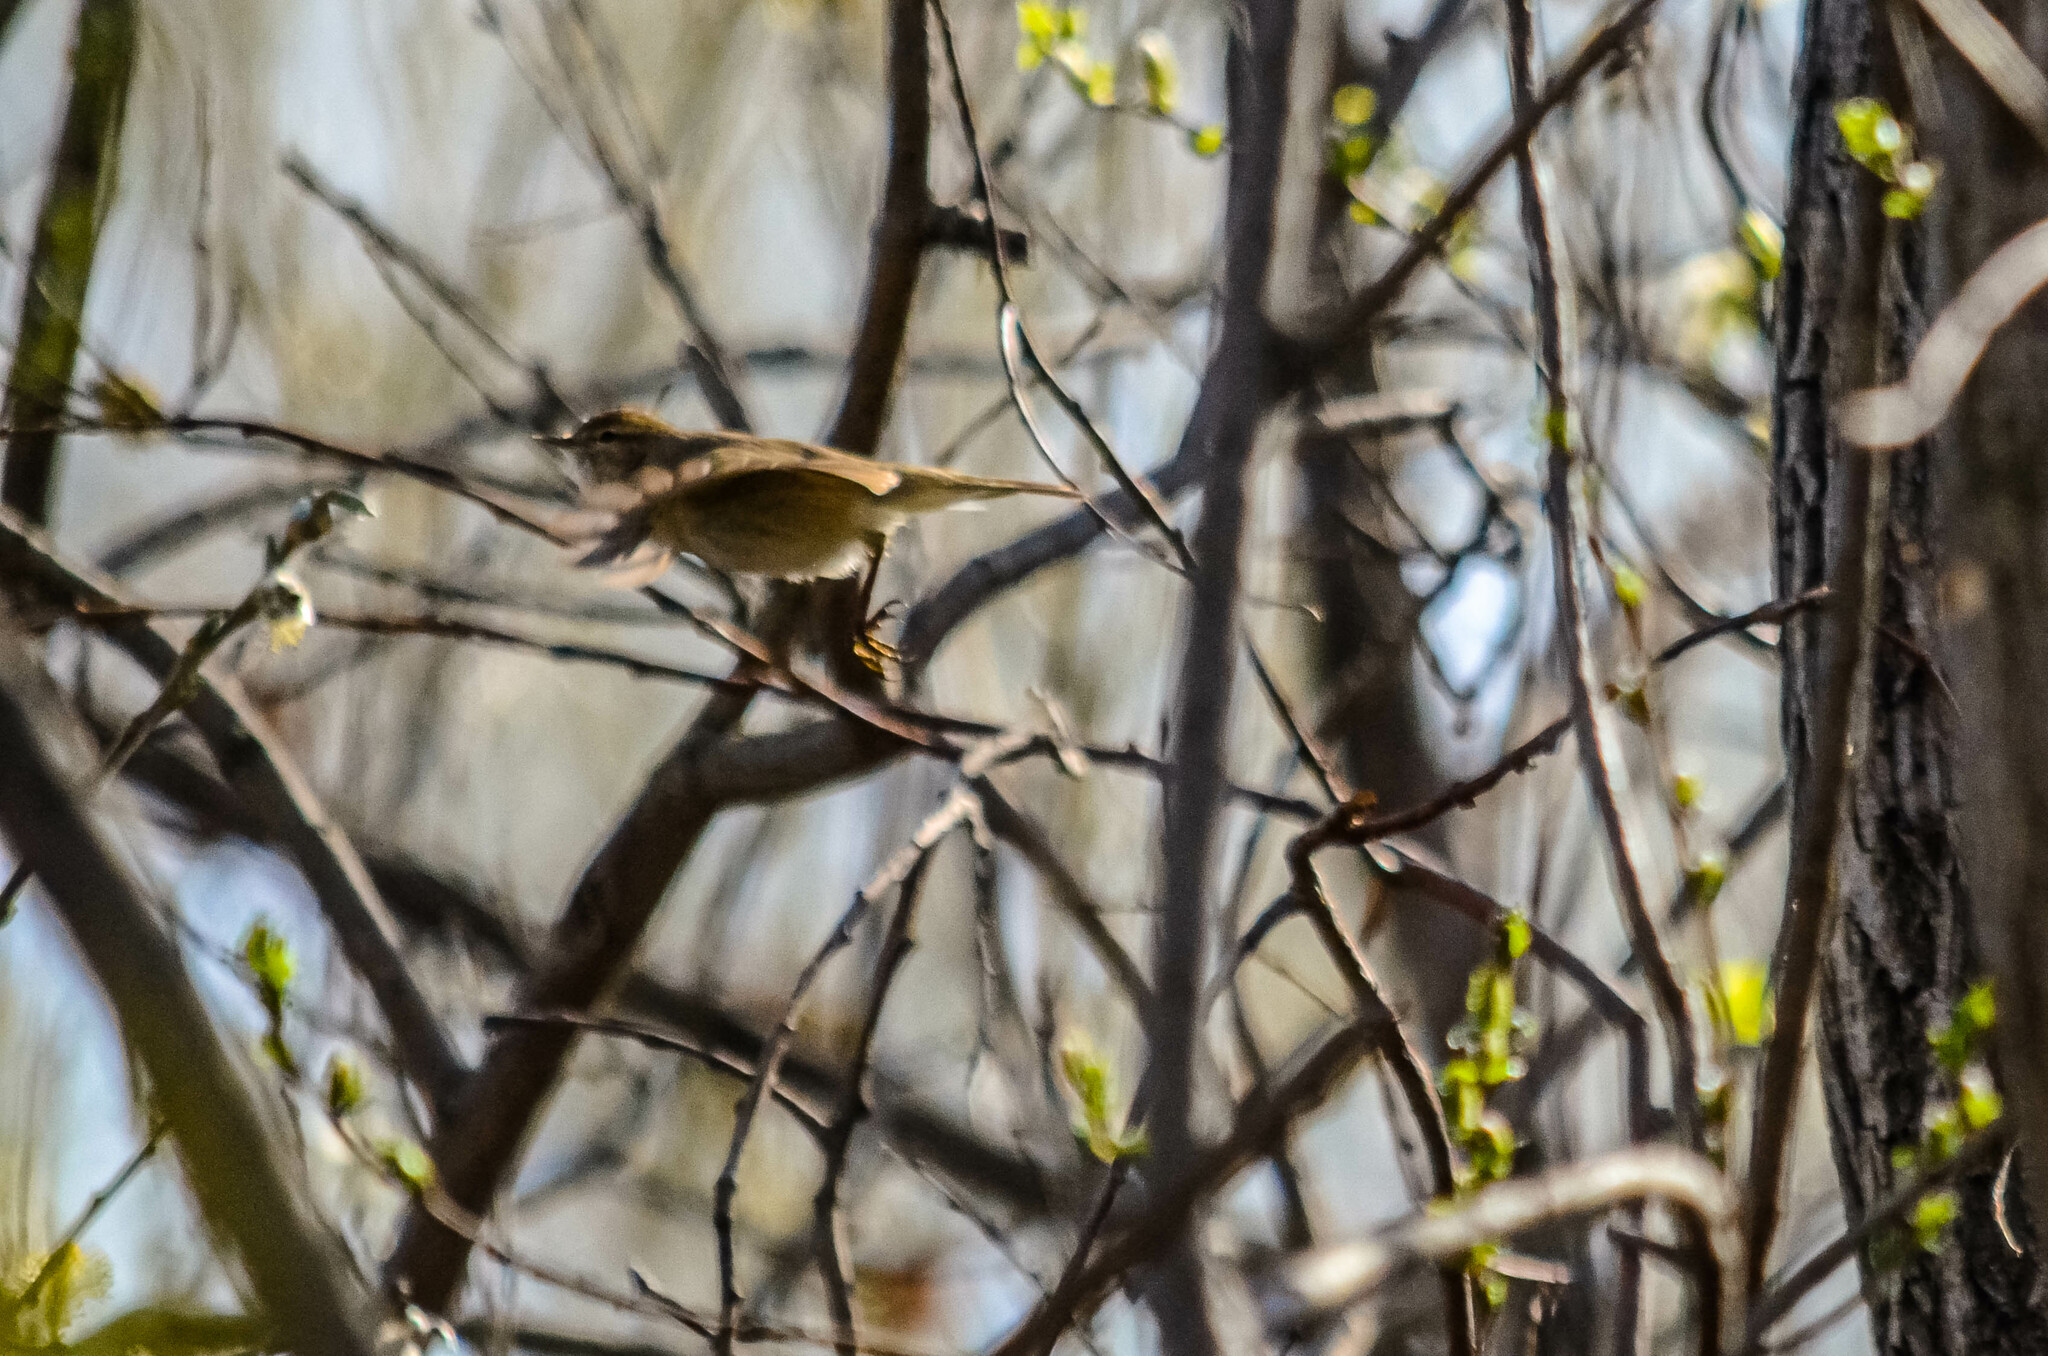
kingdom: Animalia
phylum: Chordata
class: Aves
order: Passeriformes
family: Phylloscopidae
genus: Phylloscopus
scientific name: Phylloscopus collybita
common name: Common chiffchaff
